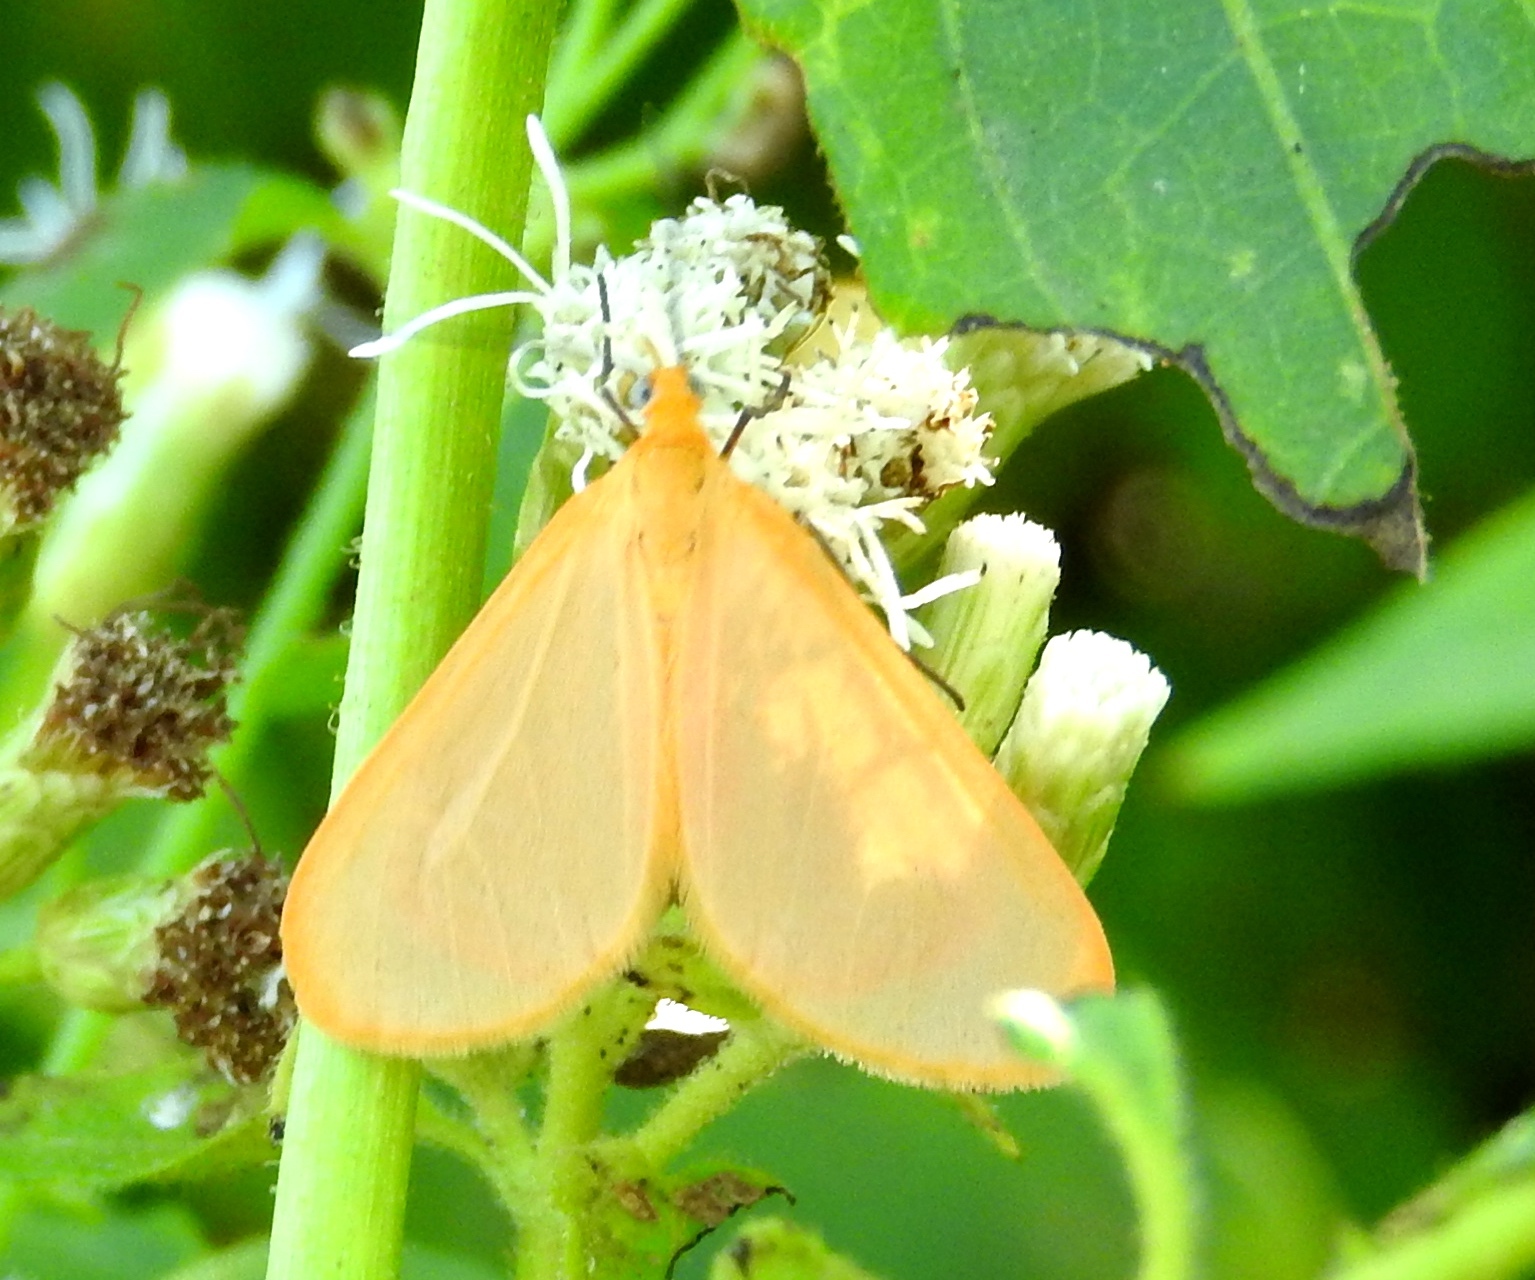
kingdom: Animalia
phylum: Arthropoda
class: Insecta
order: Lepidoptera
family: Geometridae
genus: Eubaphe
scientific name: Eubaphe
